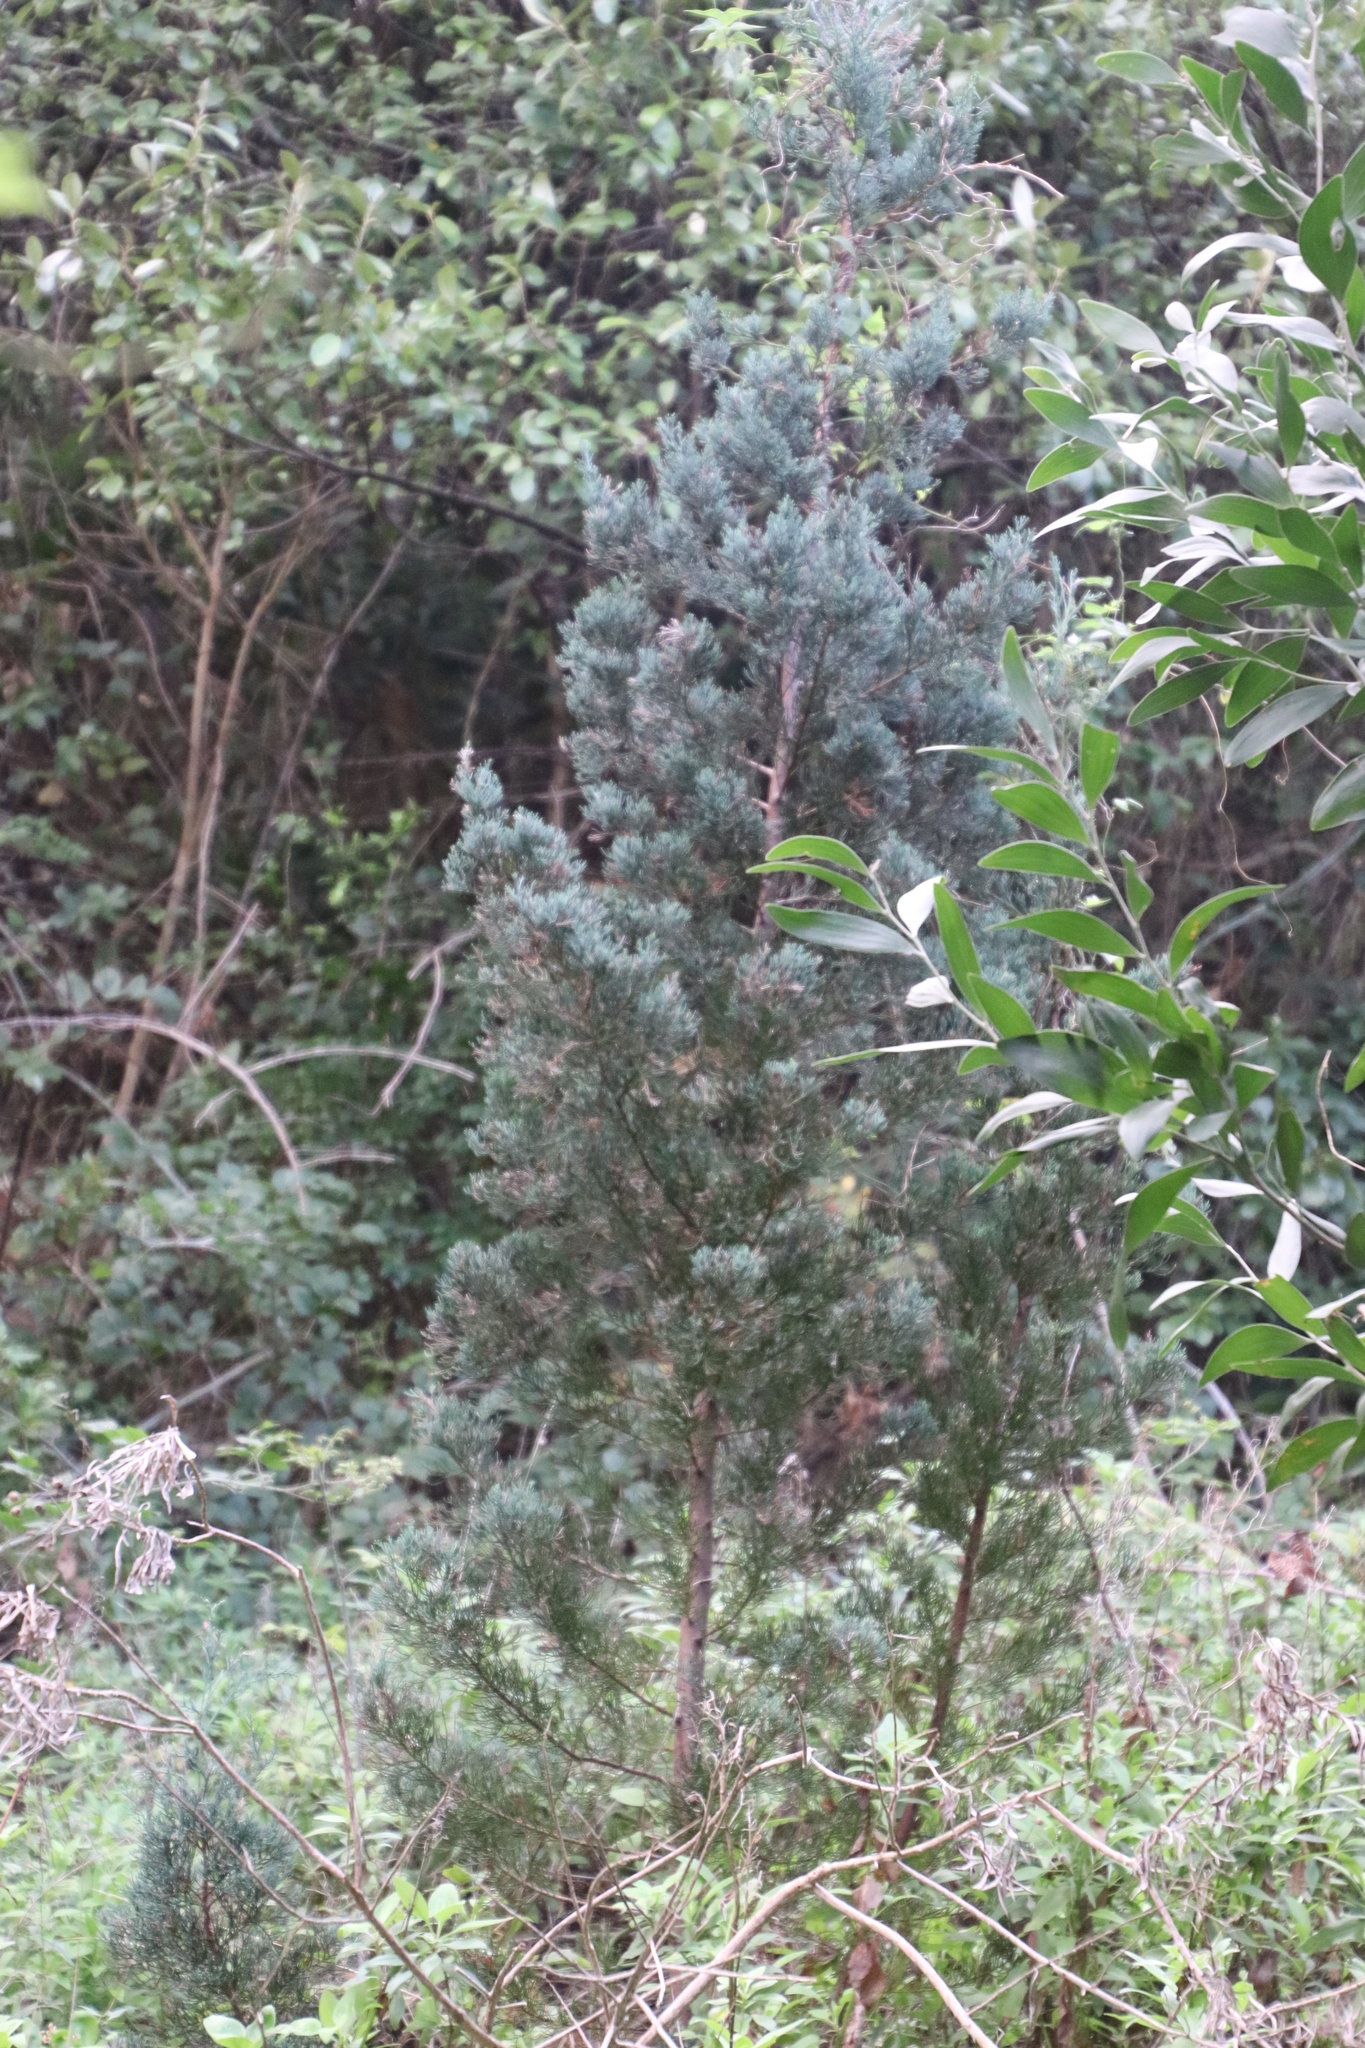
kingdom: Plantae
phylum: Tracheophyta
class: Pinopsida
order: Pinales
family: Cupressaceae
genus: Widdringtonia
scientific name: Widdringtonia nodiflora
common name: Cape cypress
